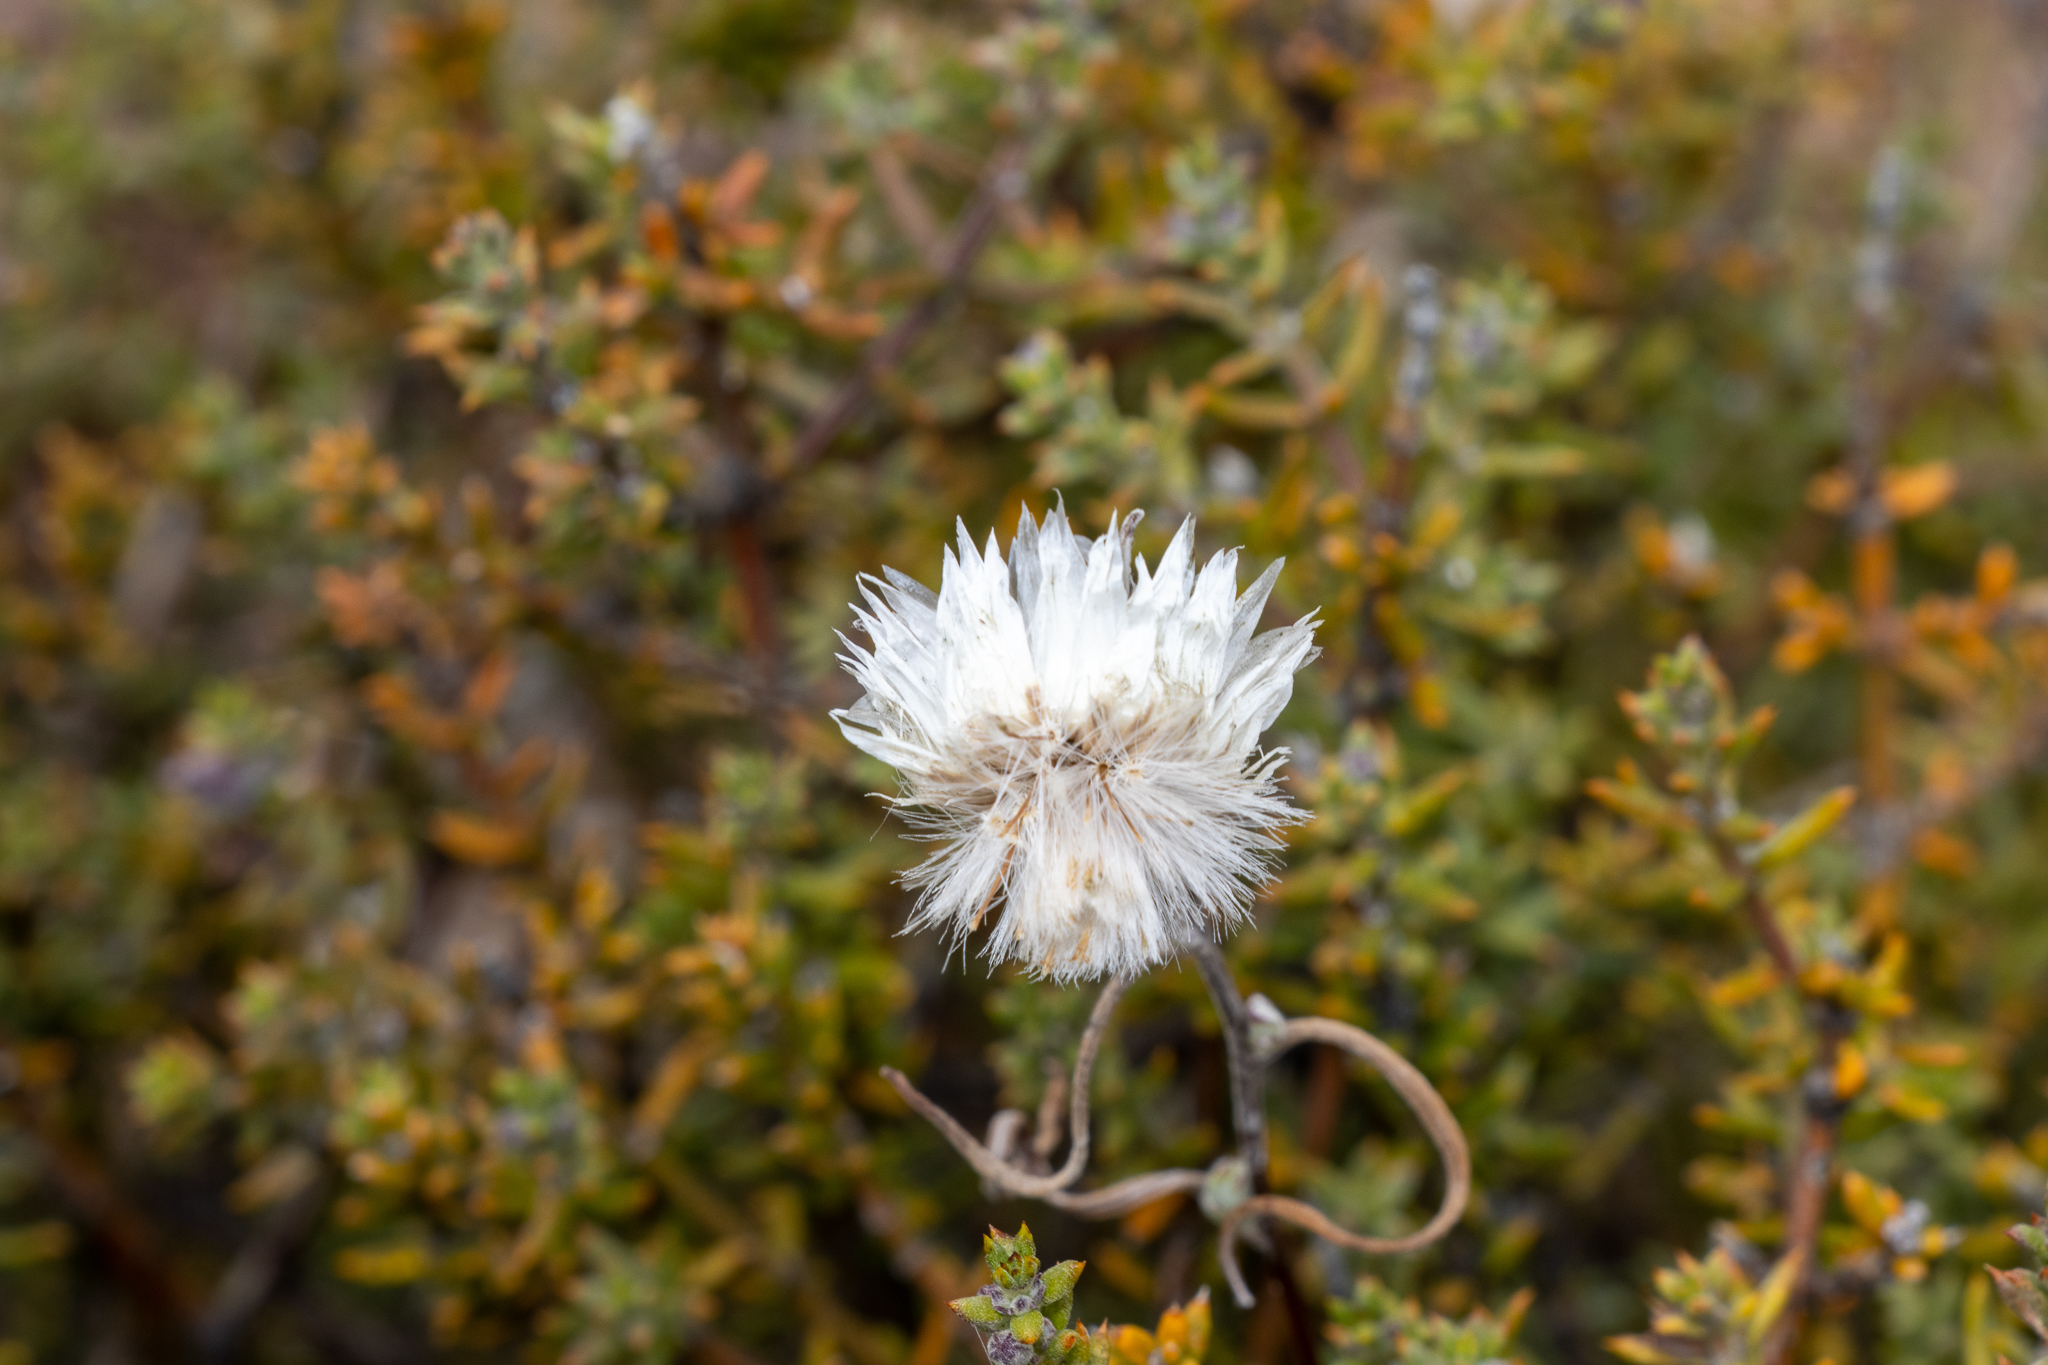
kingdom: Plantae
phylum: Tracheophyta
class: Magnoliopsida
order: Asterales
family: Asteraceae
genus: Helichrysum
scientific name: Helichrysum leucopsideum
